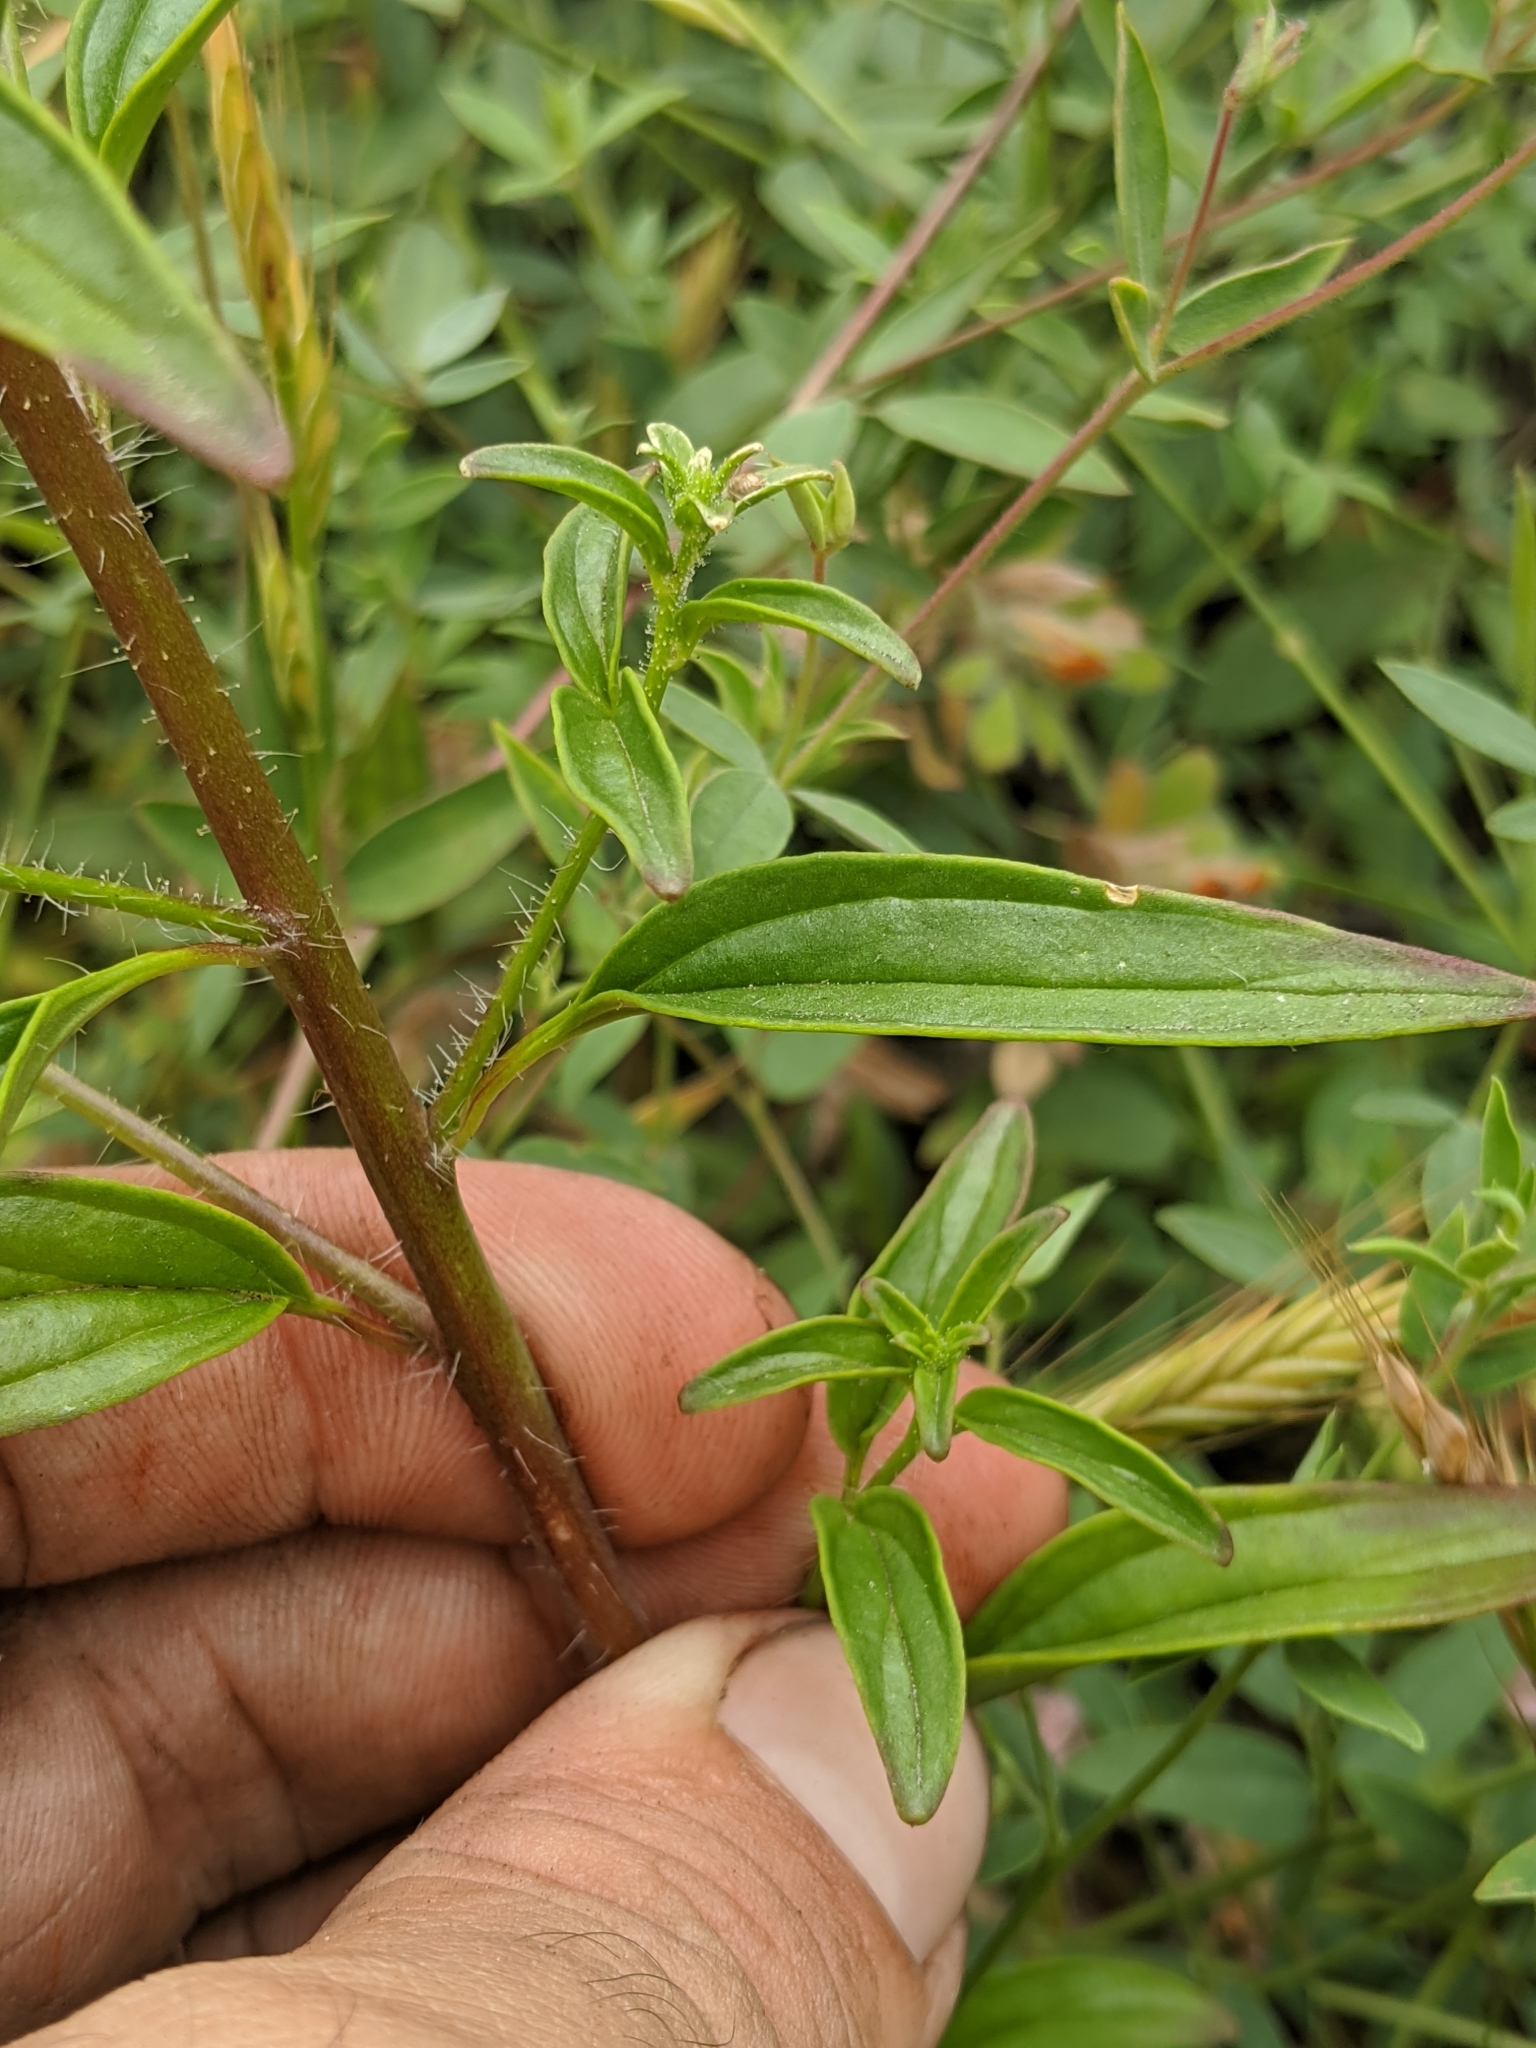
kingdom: Plantae
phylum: Tracheophyta
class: Magnoliopsida
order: Lamiales
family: Plantaginaceae
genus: Sairocarpus
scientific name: Sairocarpus vexillocalyculatus
